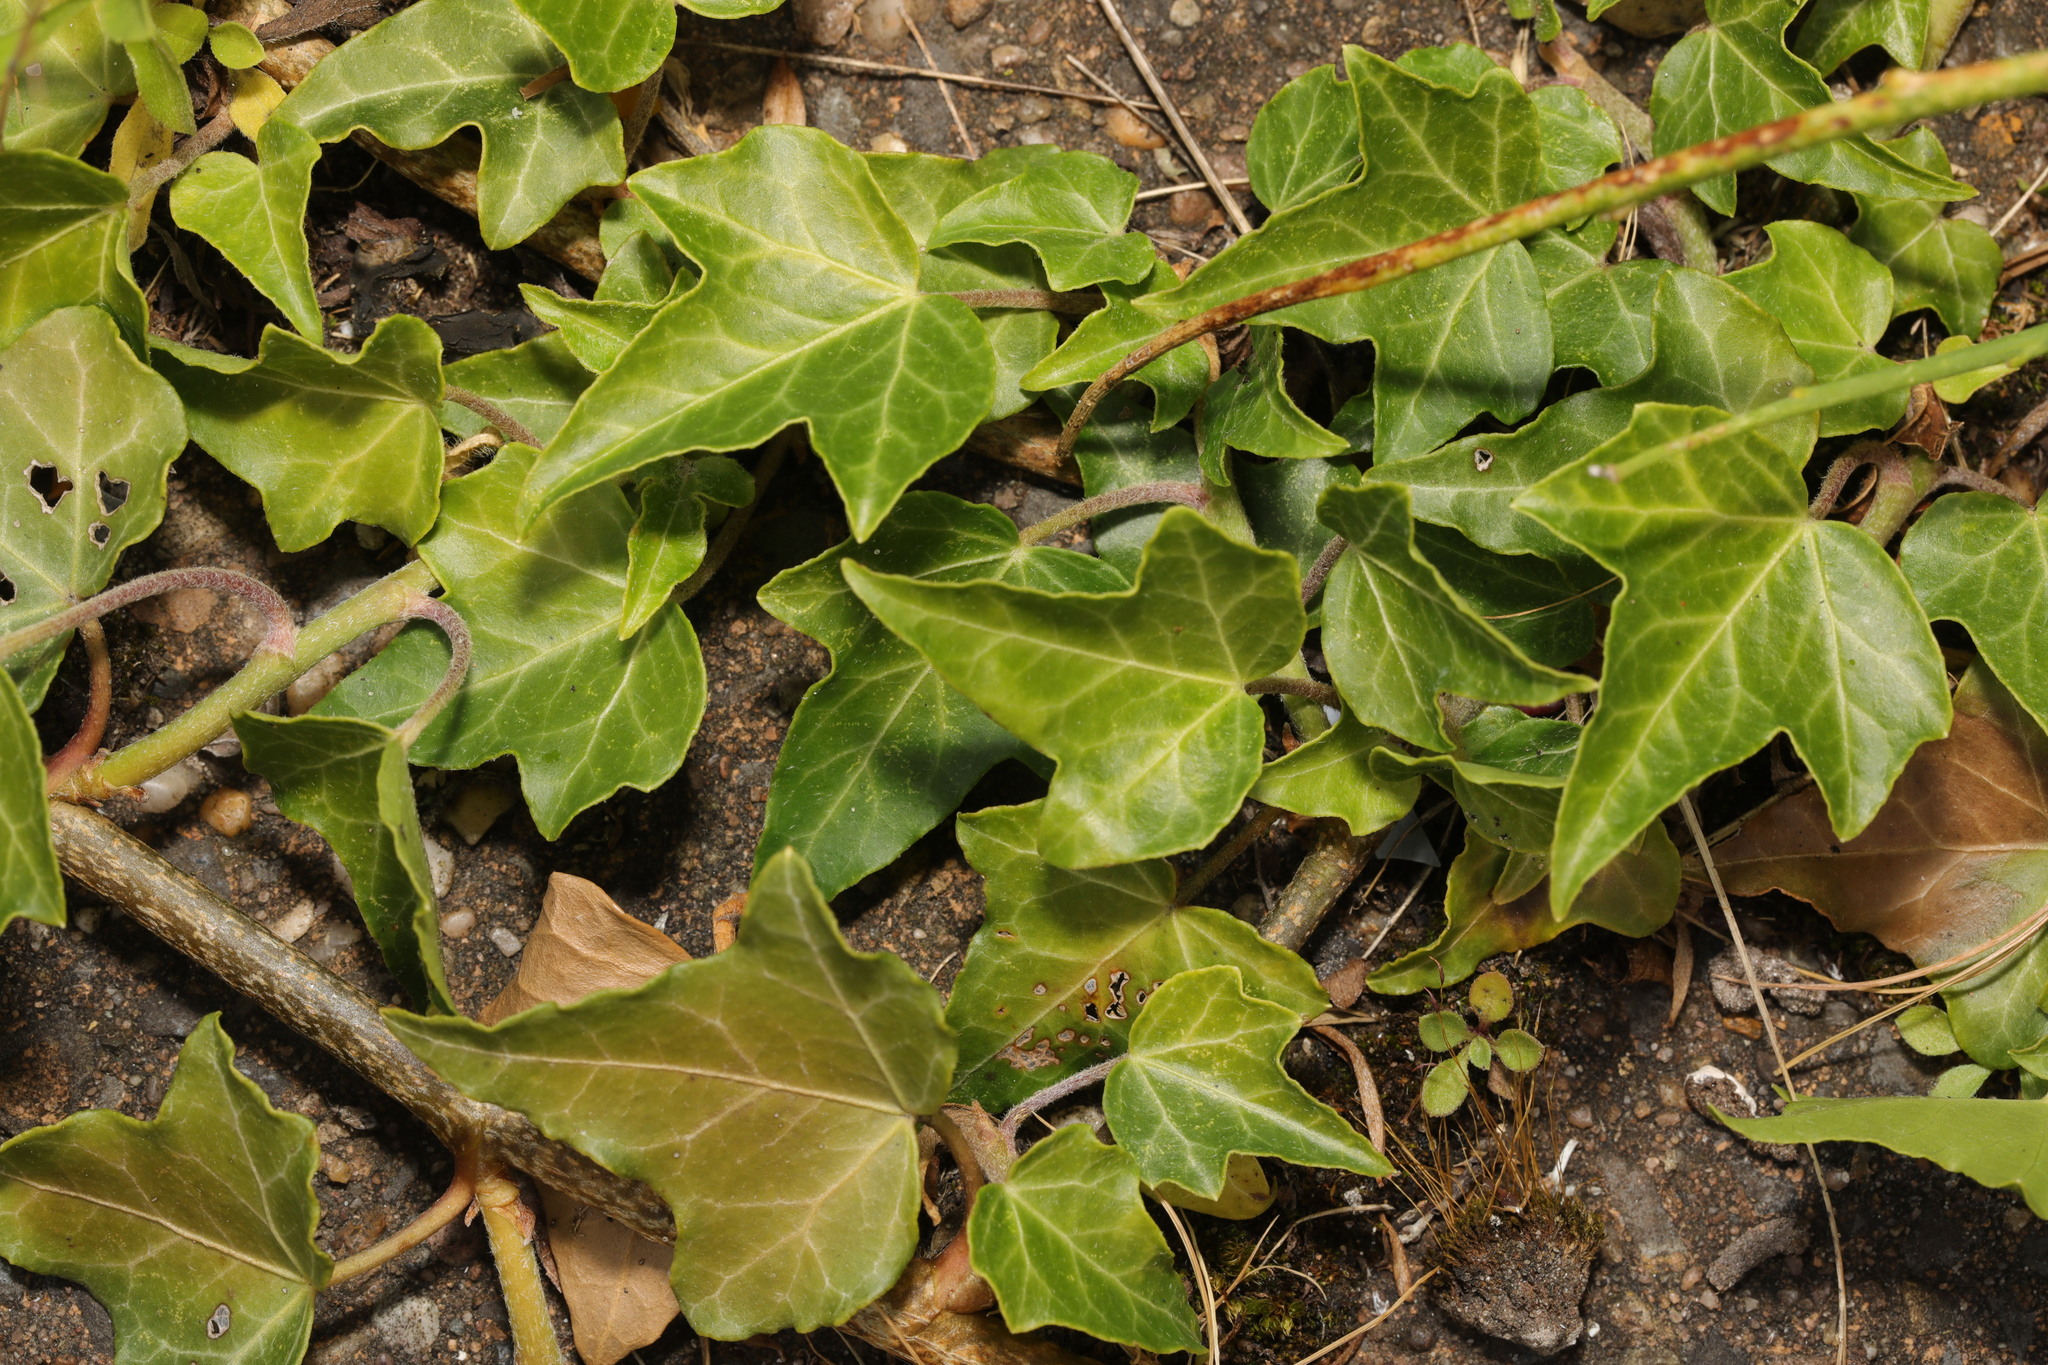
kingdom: Plantae
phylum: Tracheophyta
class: Magnoliopsida
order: Apiales
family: Araliaceae
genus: Hedera
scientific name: Hedera helix
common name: Ivy
